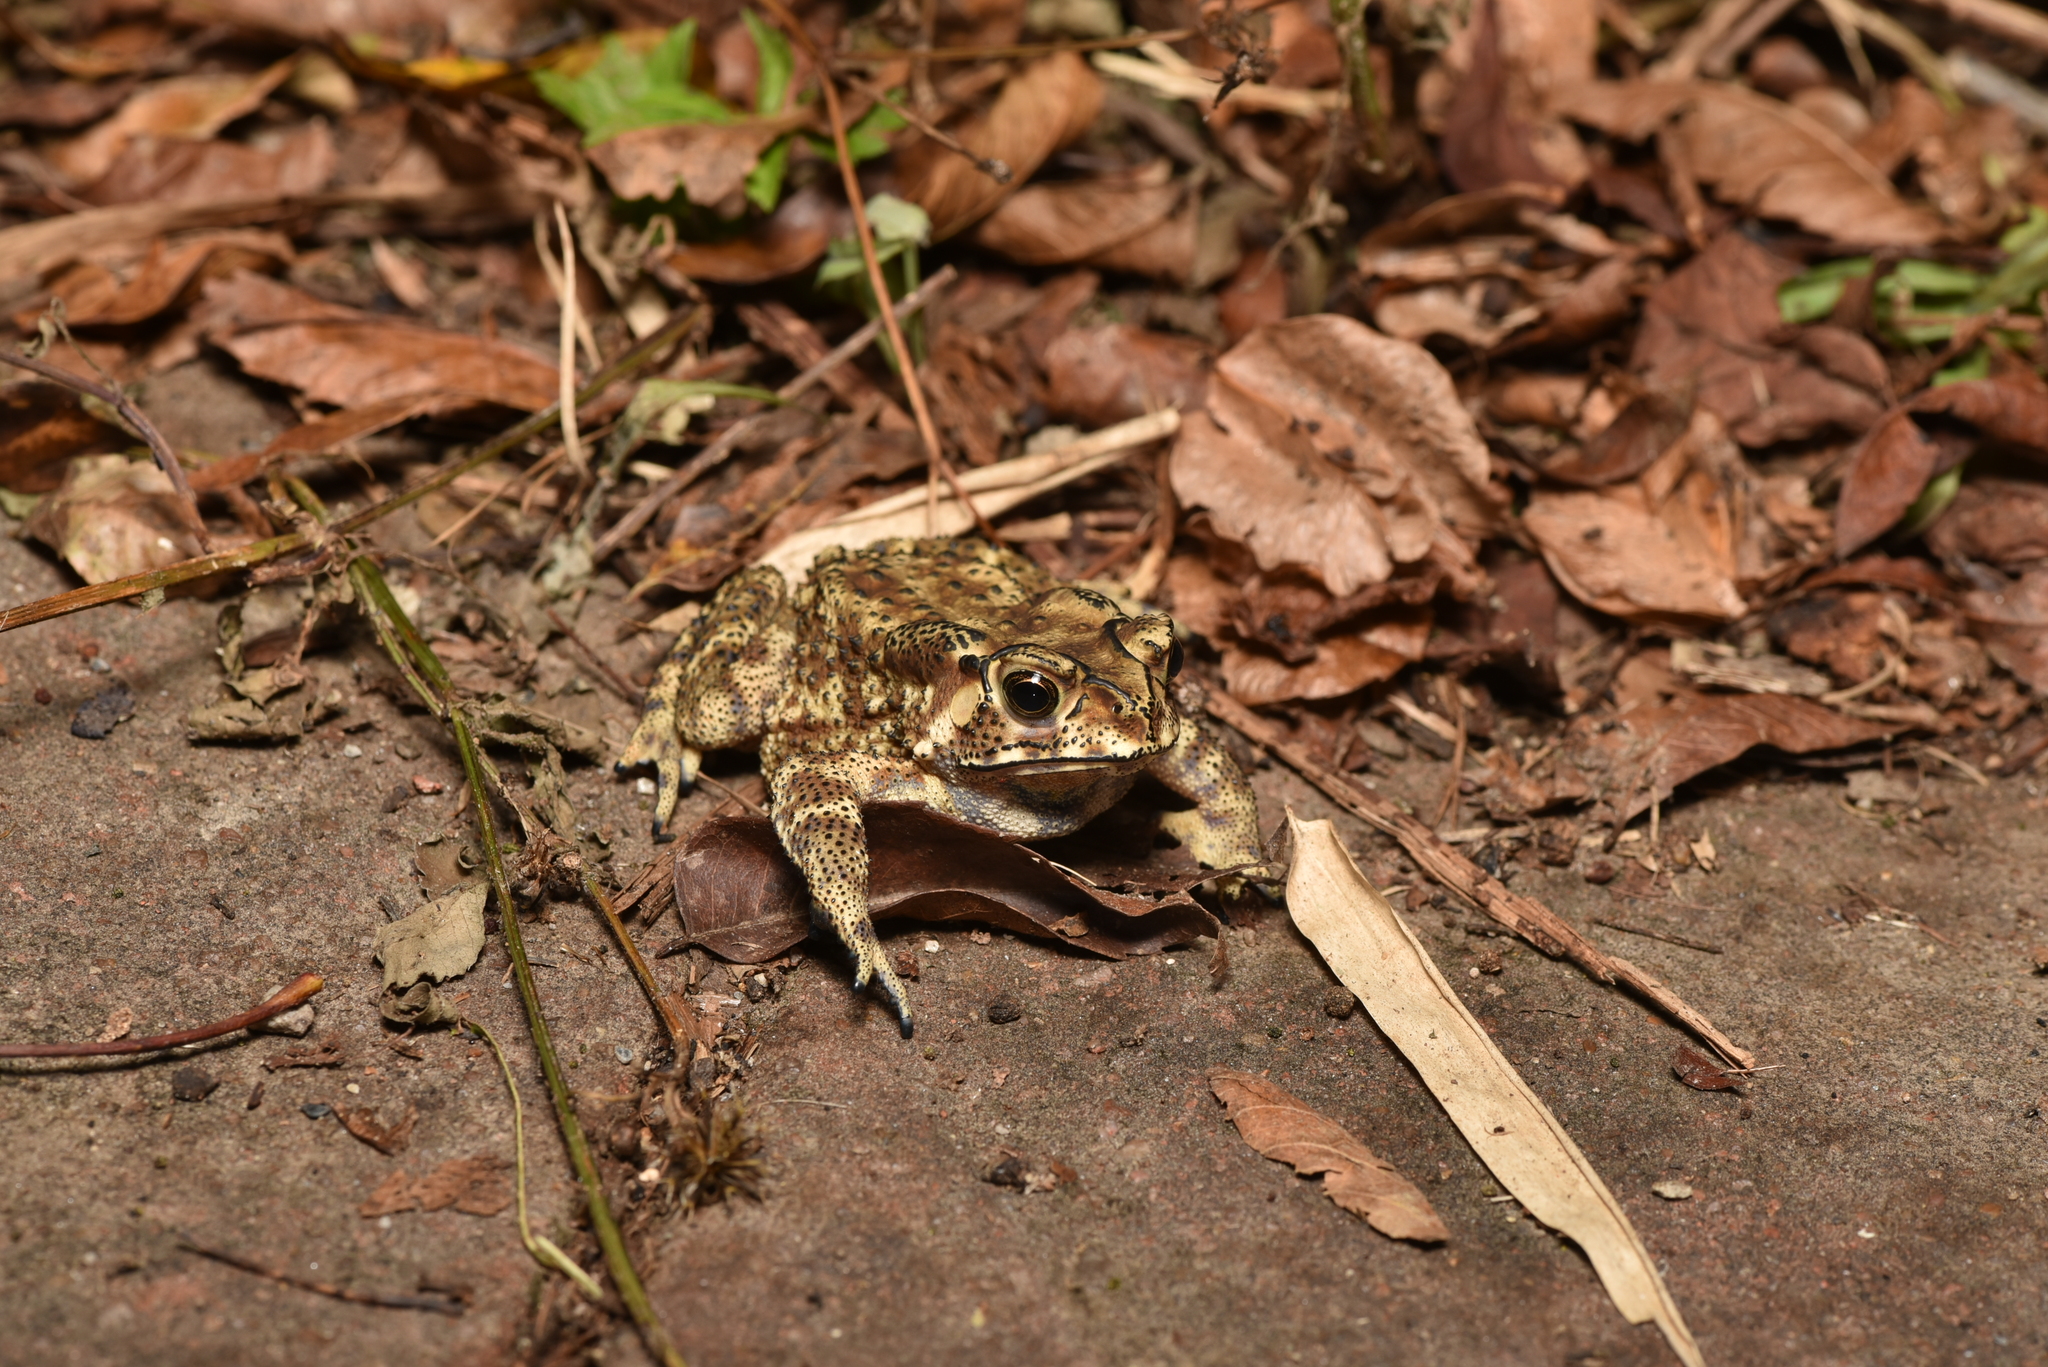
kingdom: Animalia
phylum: Chordata
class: Amphibia
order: Anura
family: Bufonidae
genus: Duttaphrynus
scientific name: Duttaphrynus melanostictus
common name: Common sunda toad
